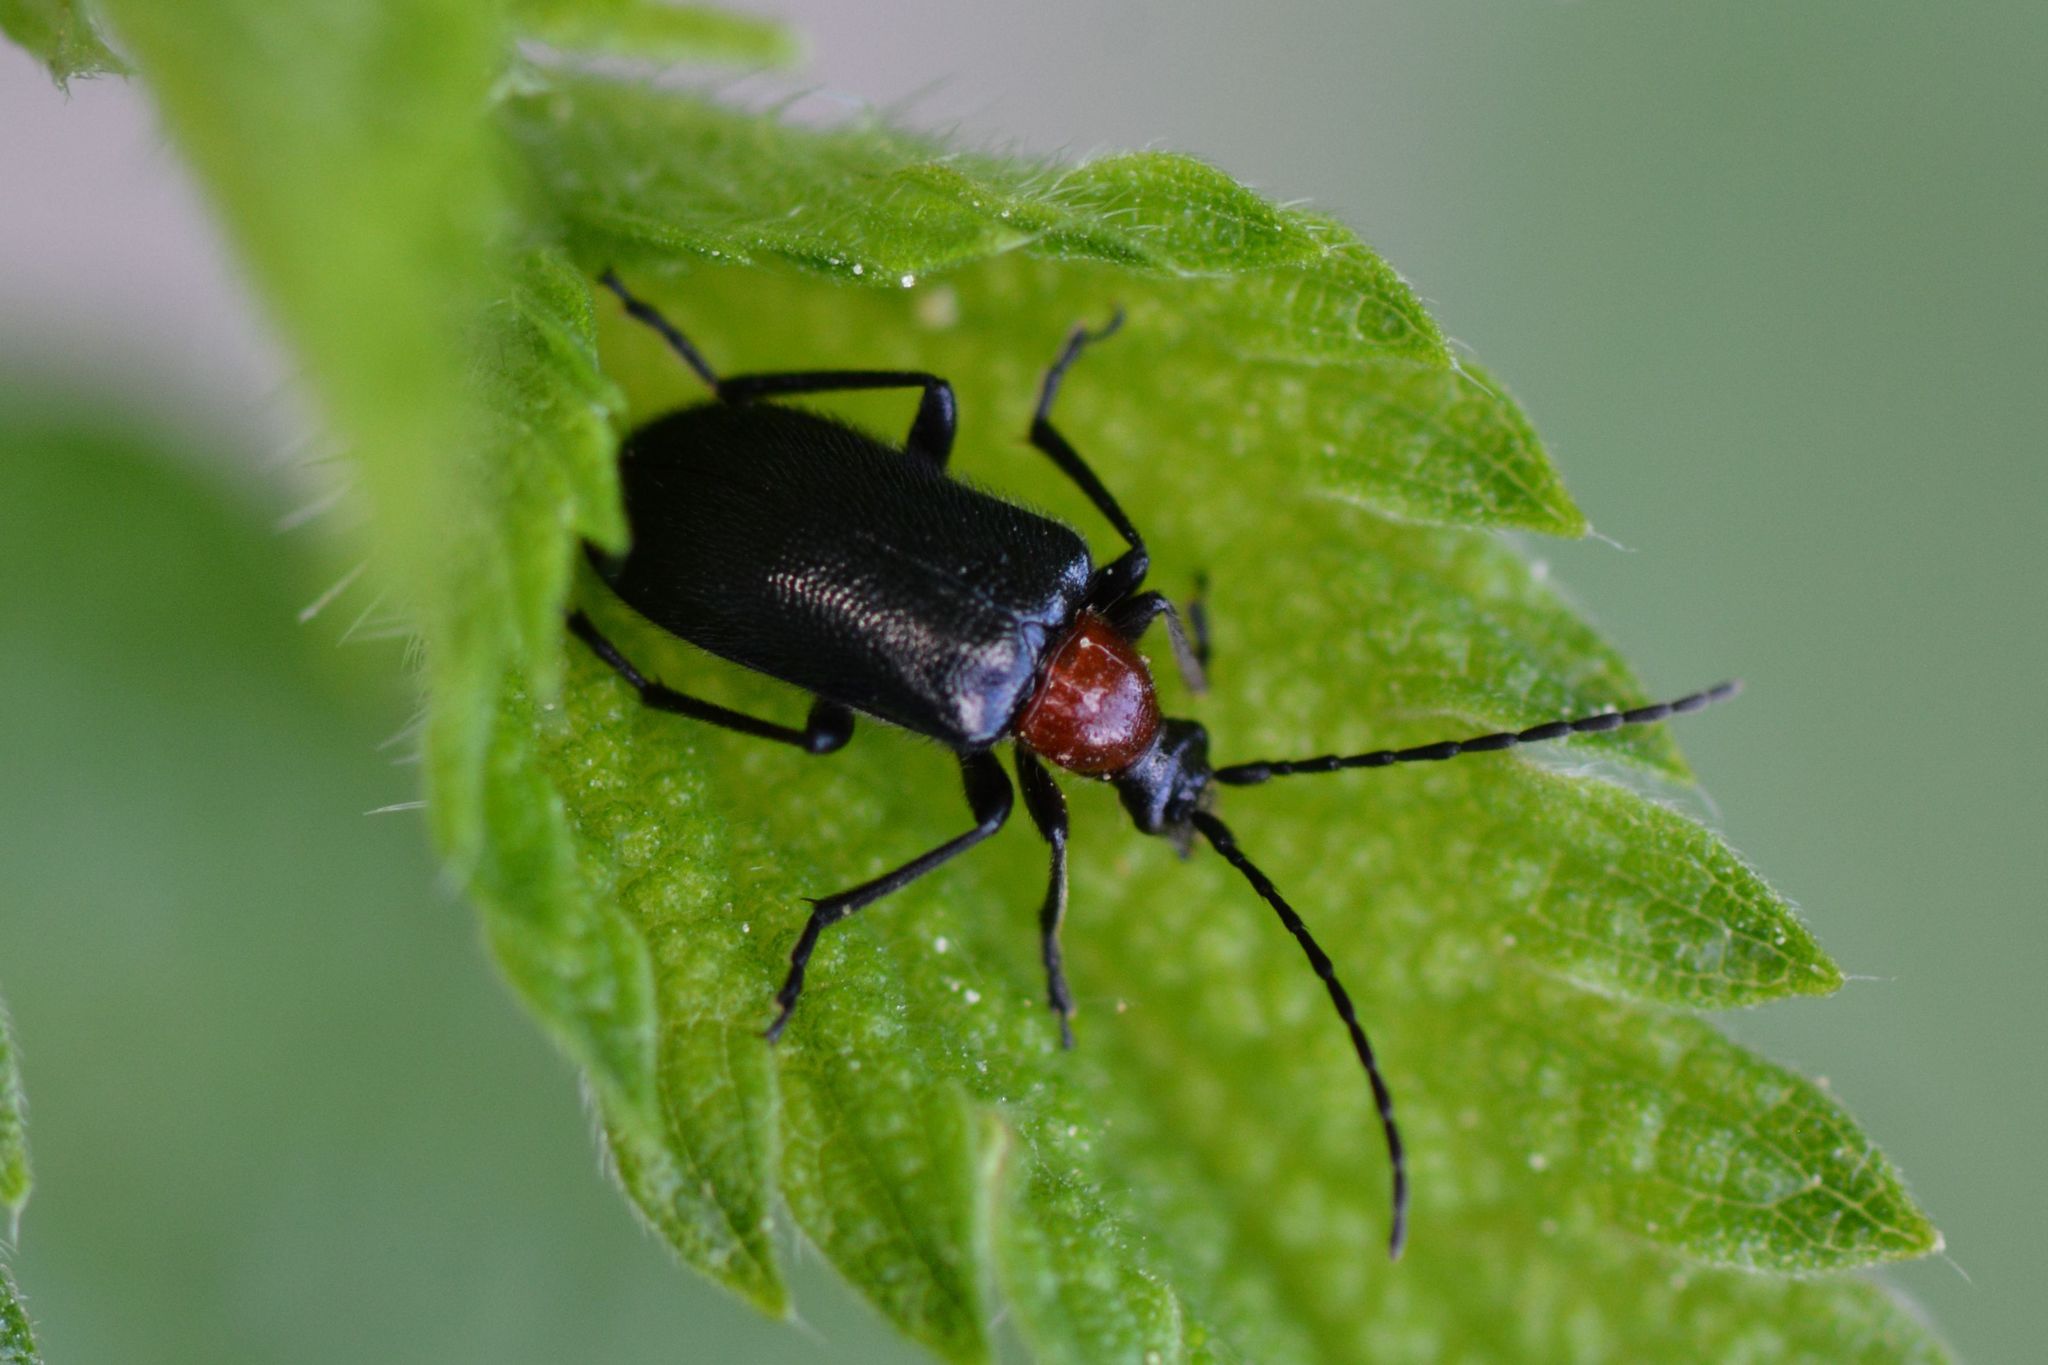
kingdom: Animalia
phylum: Arthropoda
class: Insecta
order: Coleoptera
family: Cerambycidae
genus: Dinoptera
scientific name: Dinoptera collaris
